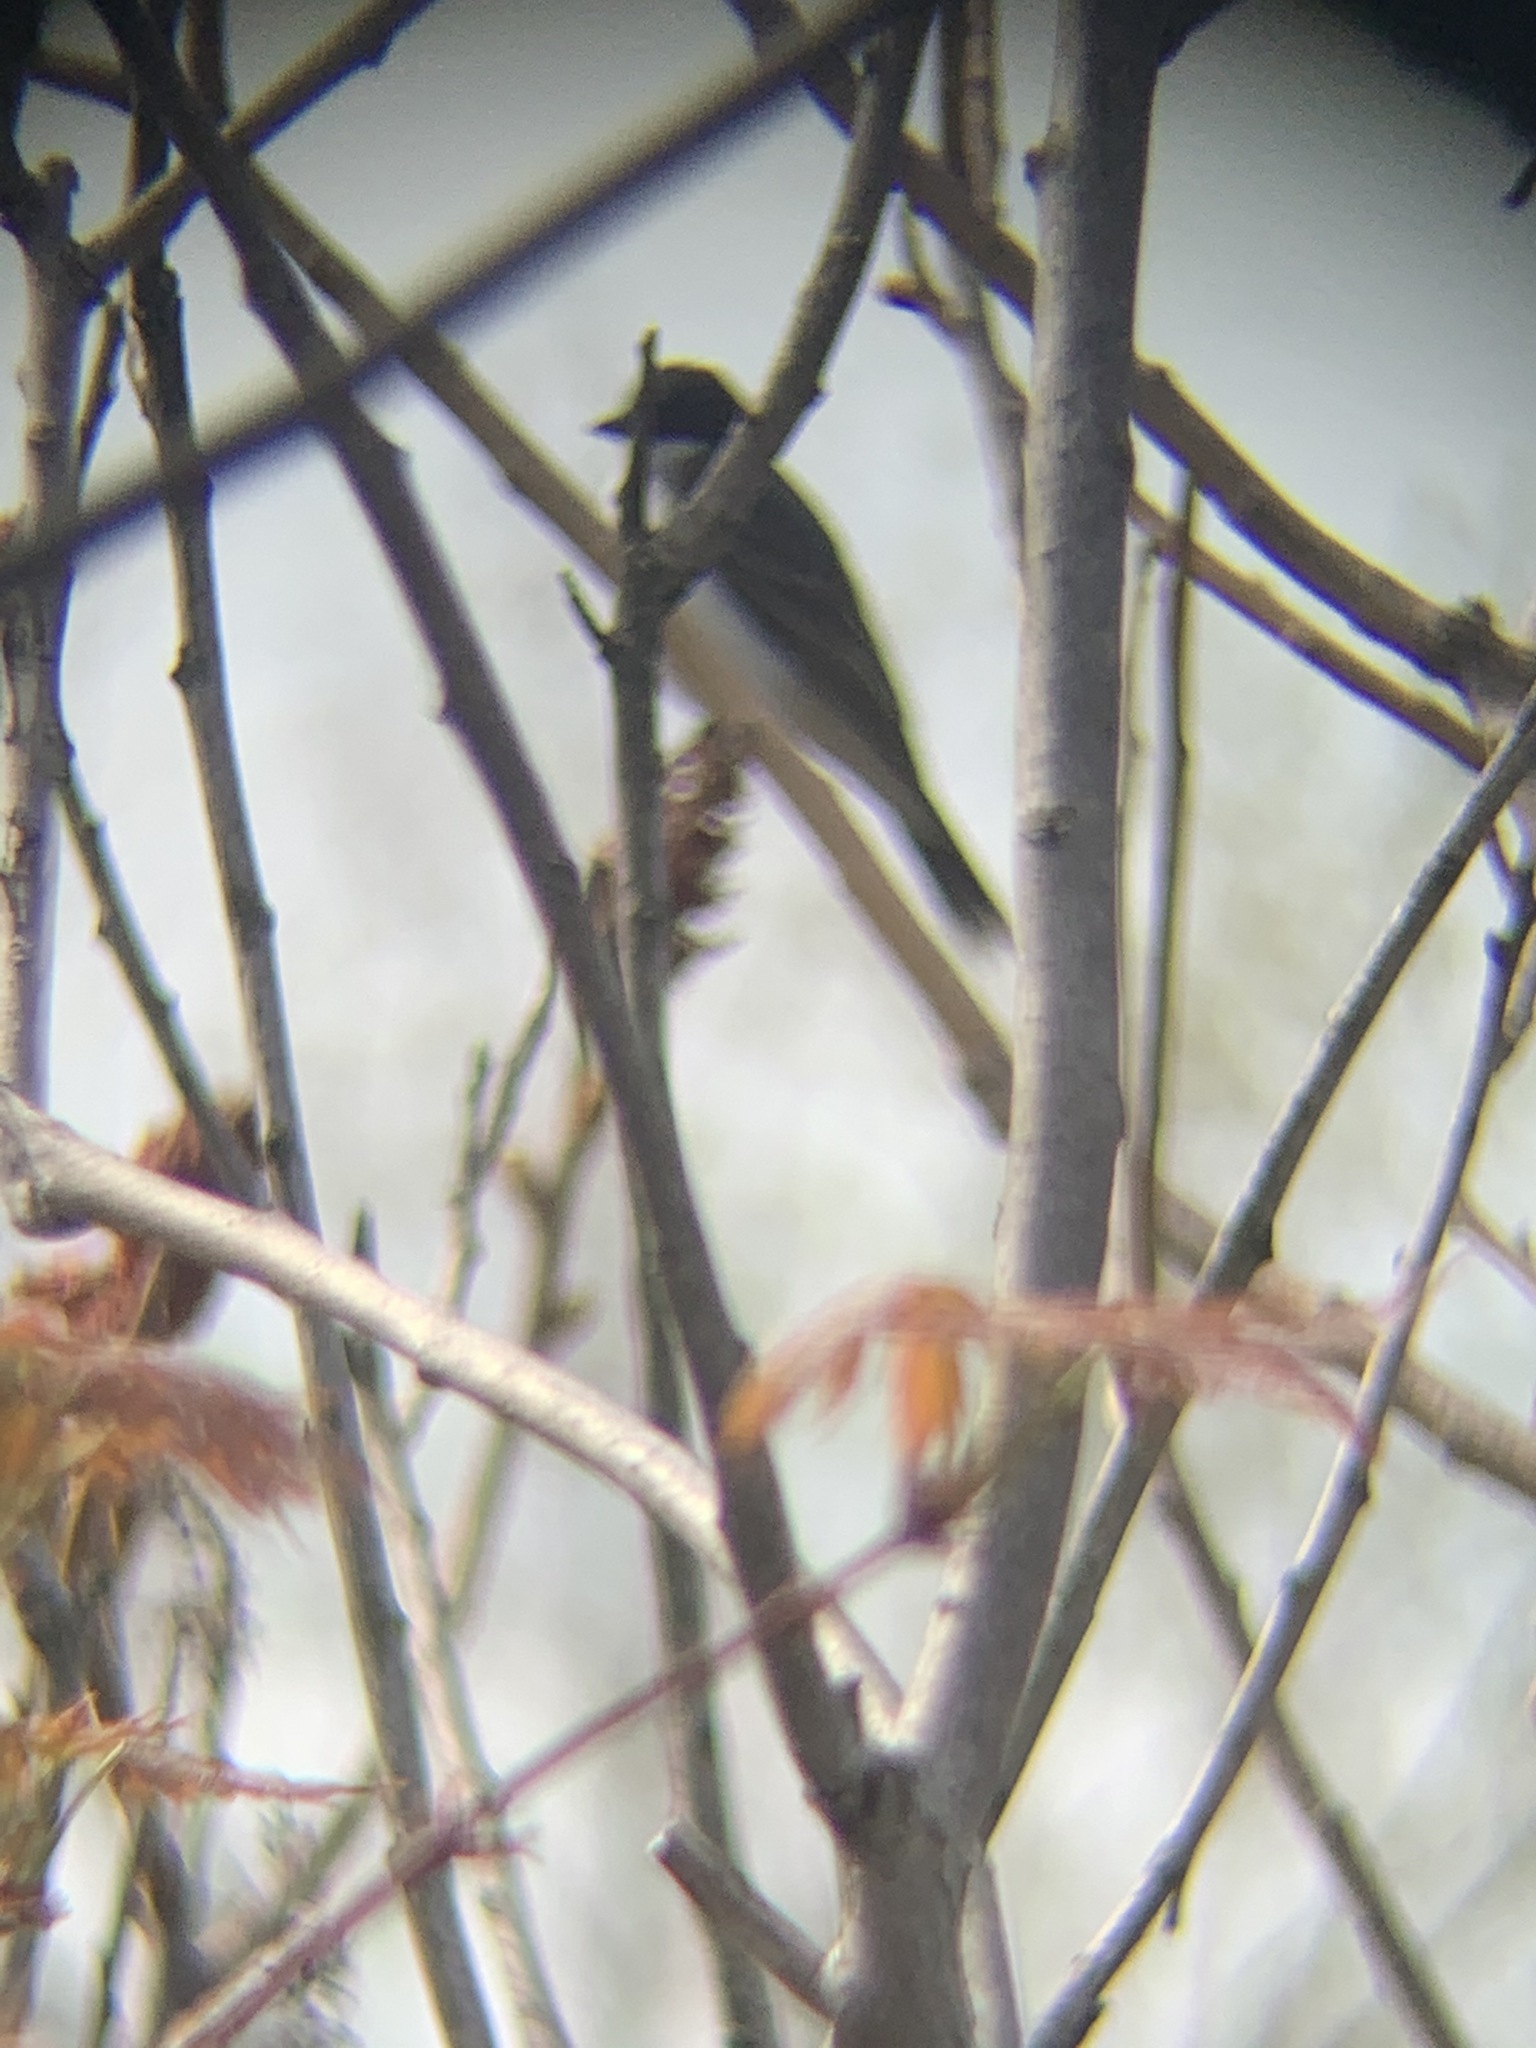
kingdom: Animalia
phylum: Chordata
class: Aves
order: Passeriformes
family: Tyrannidae
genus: Tyrannus
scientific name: Tyrannus tyrannus
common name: Eastern kingbird
